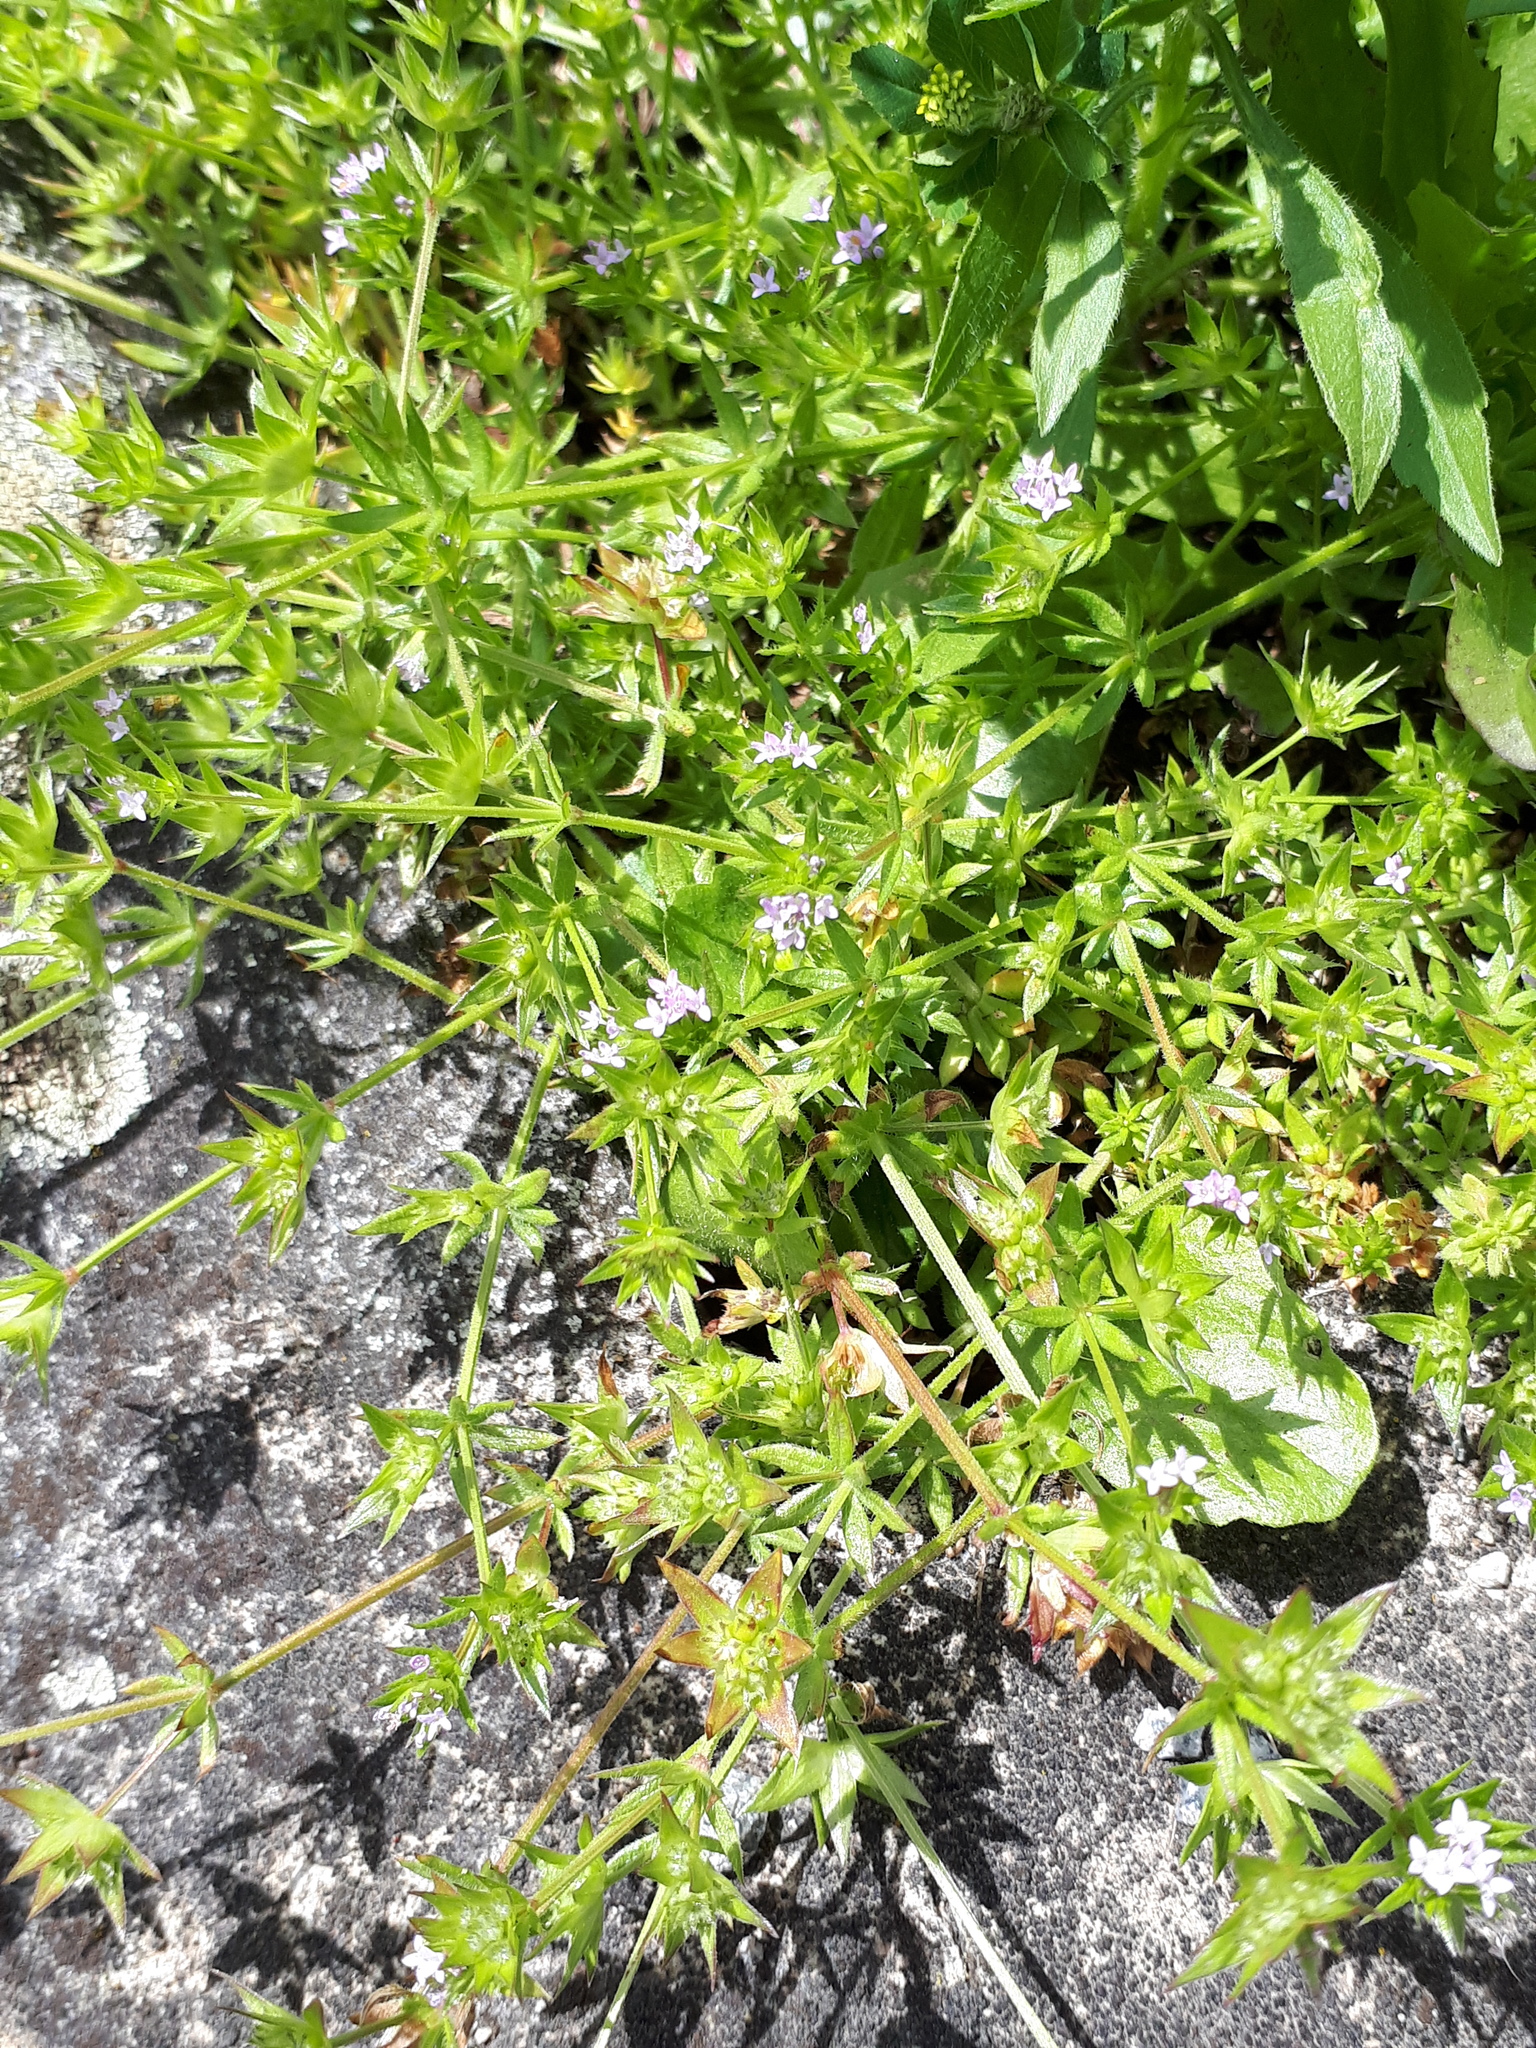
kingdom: Plantae
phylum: Tracheophyta
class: Magnoliopsida
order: Gentianales
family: Rubiaceae
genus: Sherardia
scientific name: Sherardia arvensis
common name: Field madder
